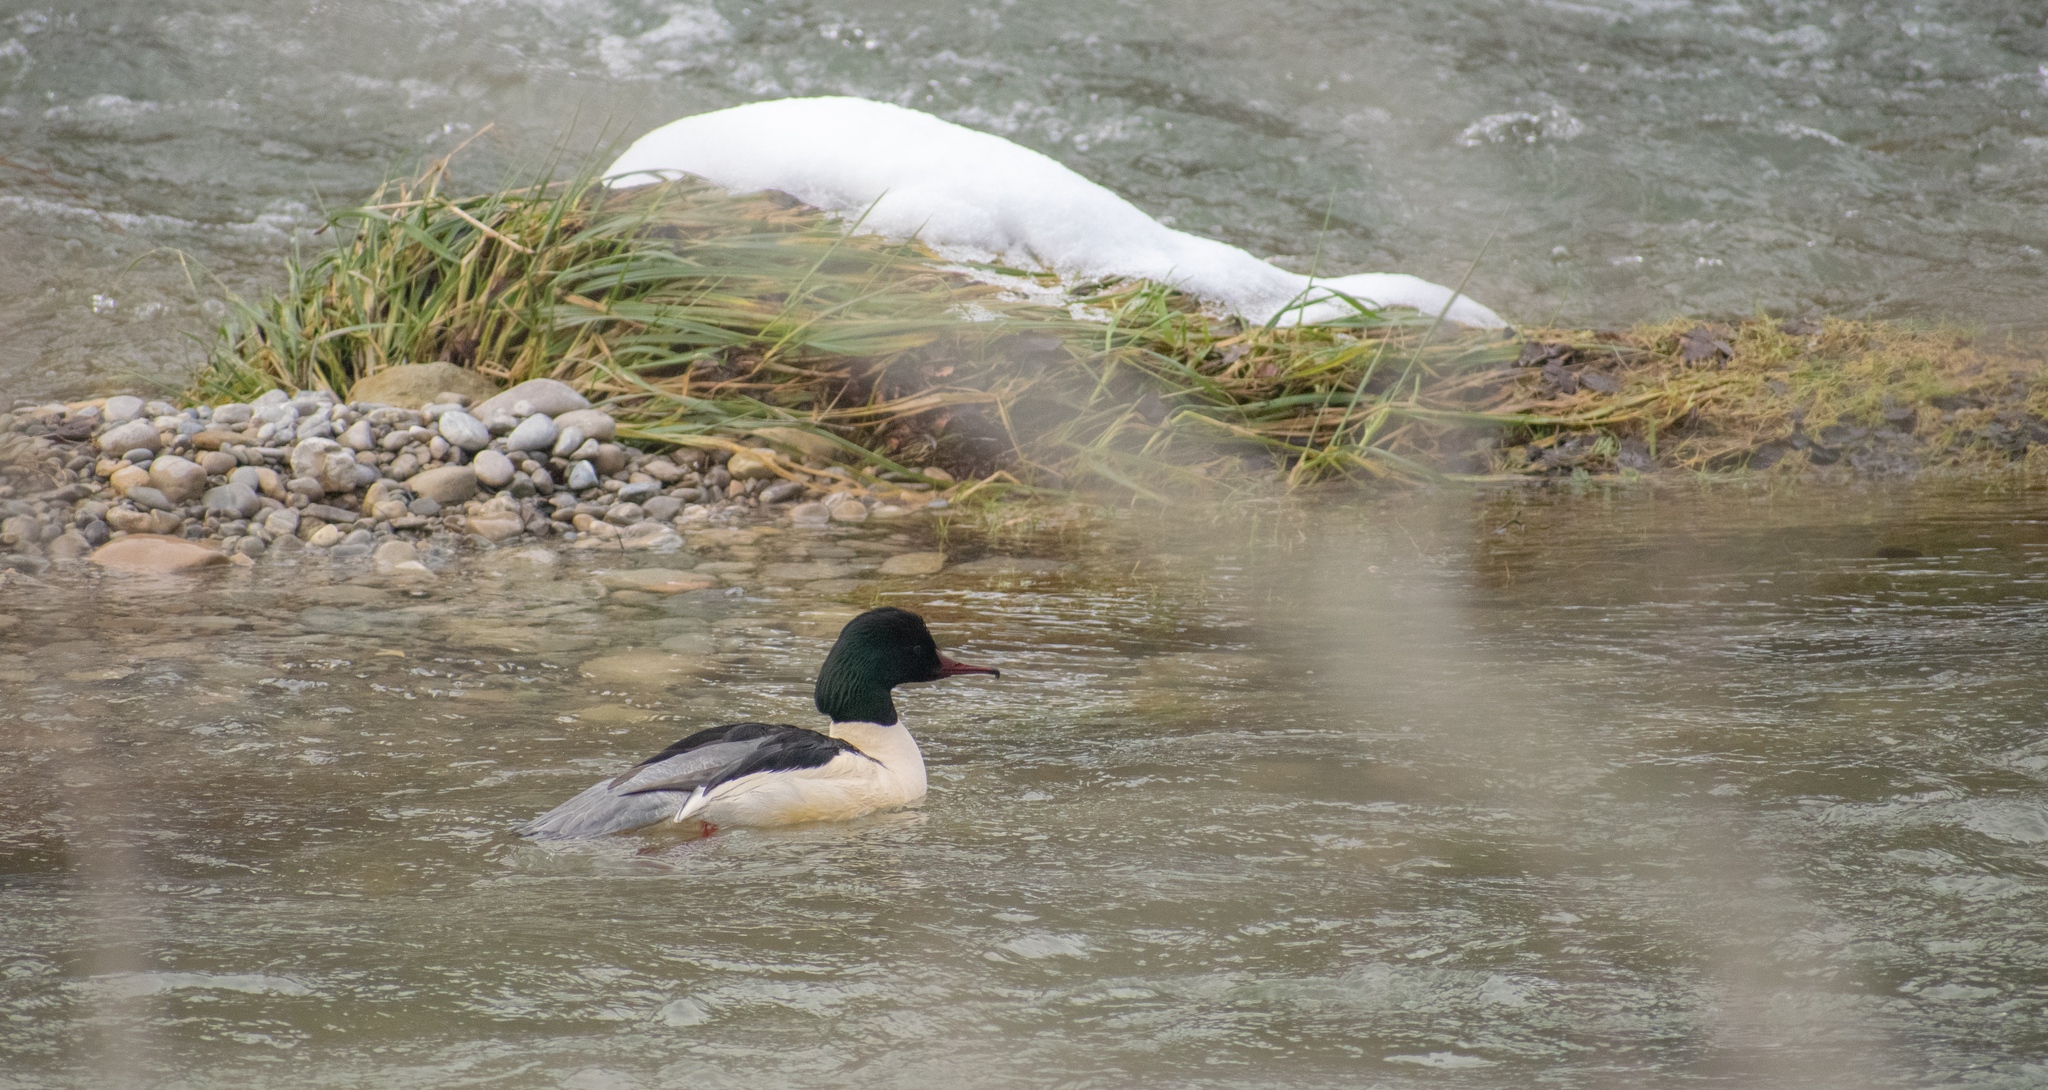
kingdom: Animalia
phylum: Chordata
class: Aves
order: Anseriformes
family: Anatidae
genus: Mergus
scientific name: Mergus merganser
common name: Common merganser
